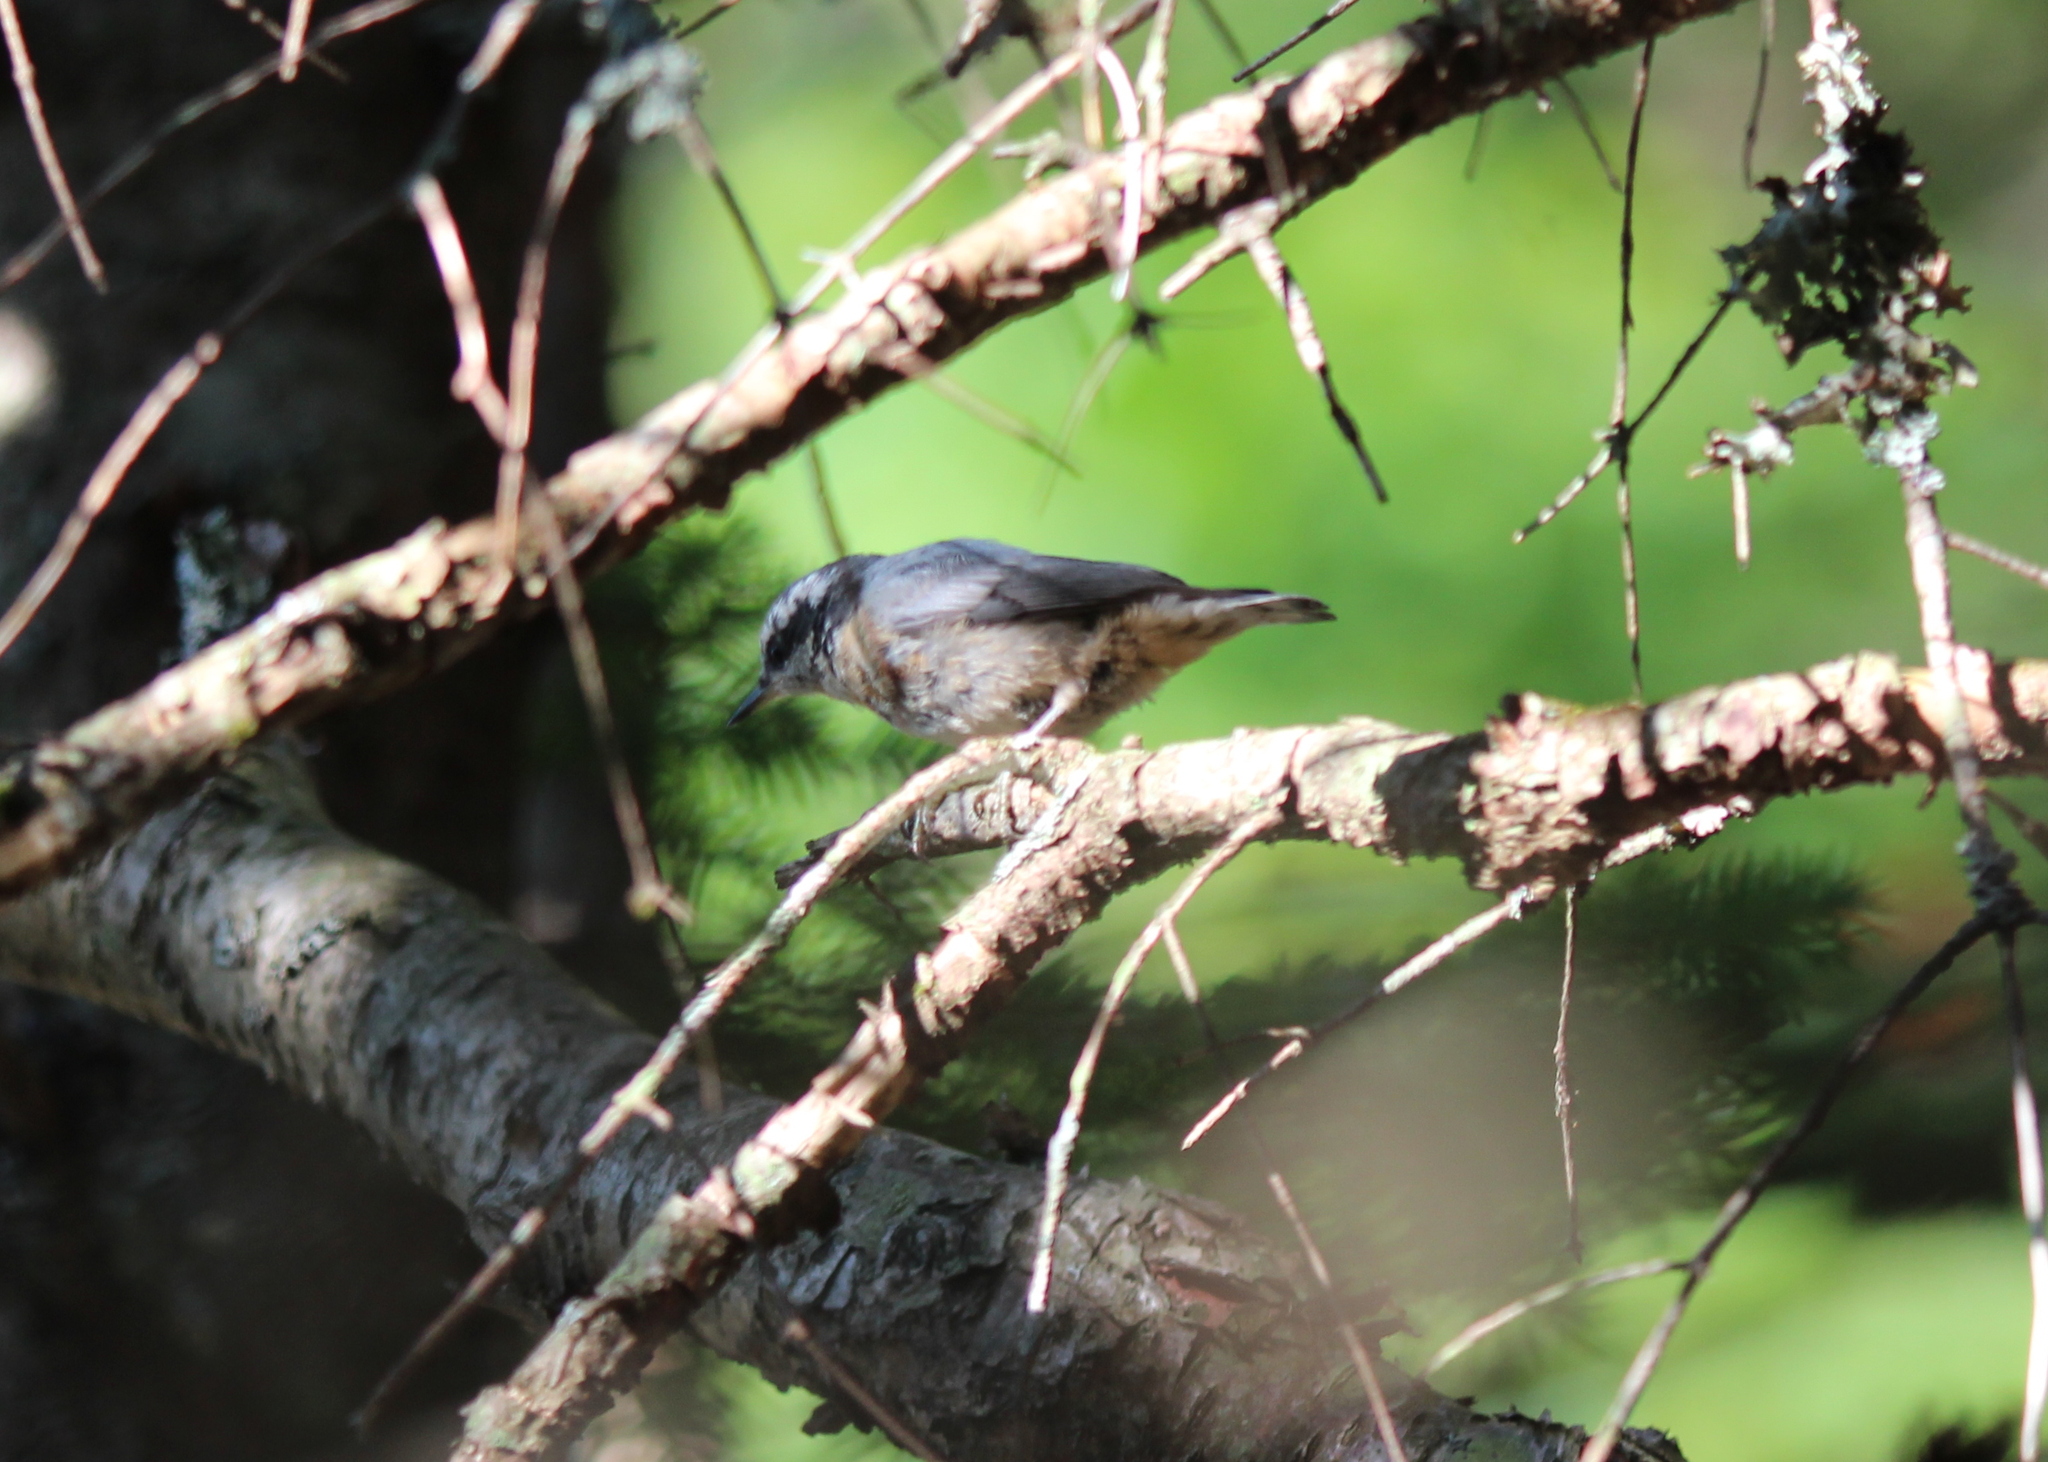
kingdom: Animalia
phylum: Chordata
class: Aves
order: Passeriformes
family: Sittidae
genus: Sitta
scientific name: Sitta canadensis
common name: Red-breasted nuthatch
